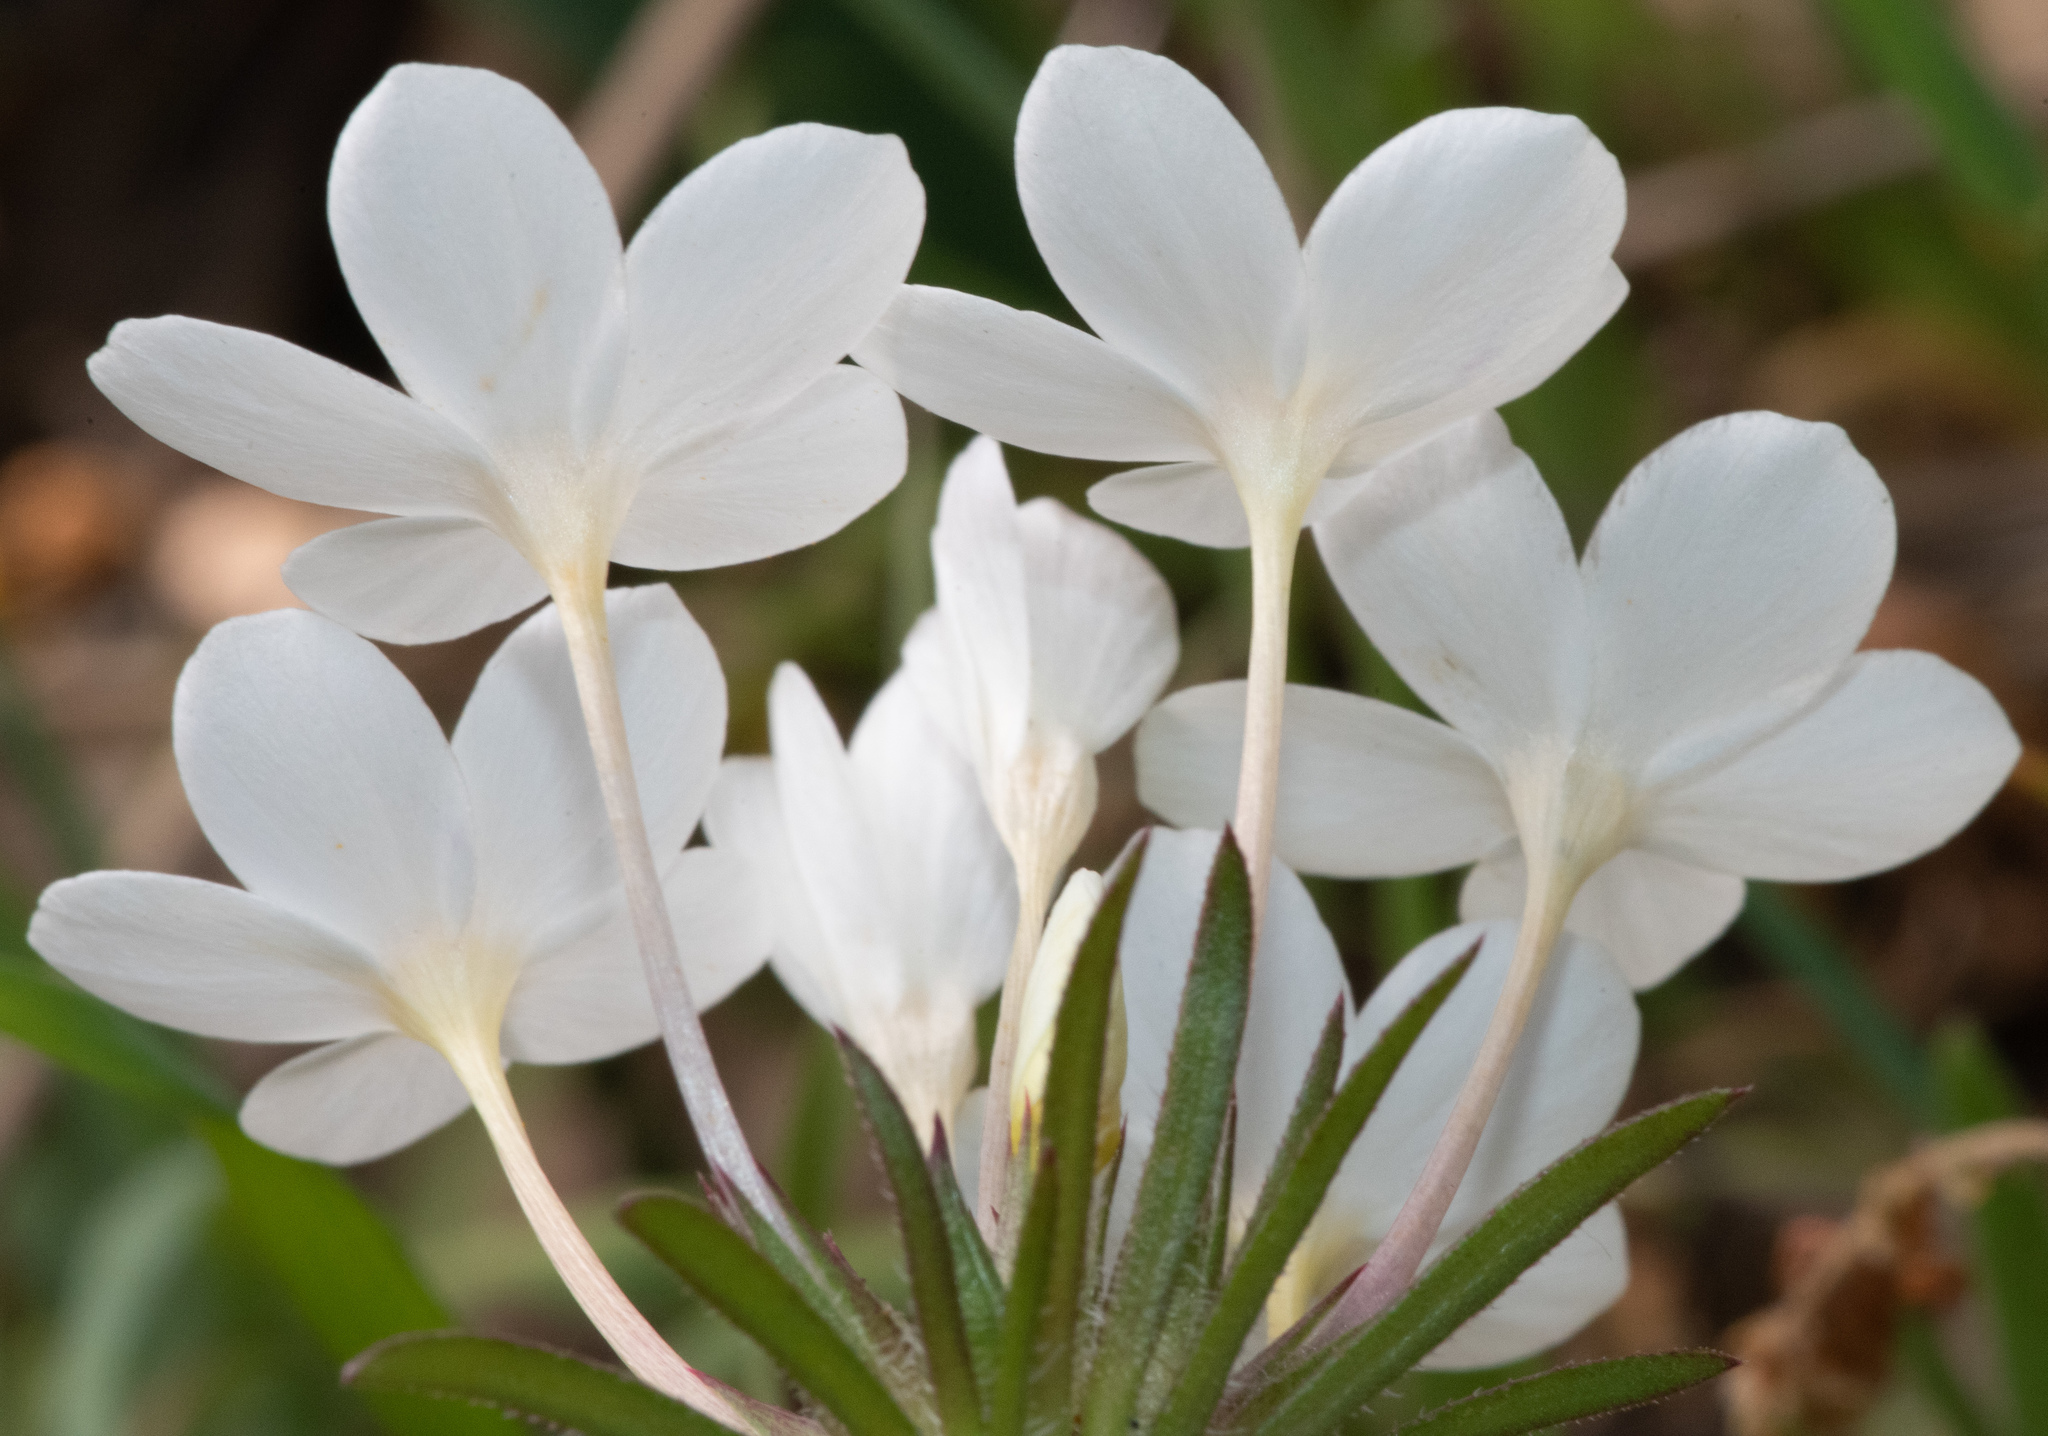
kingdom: Plantae
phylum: Tracheophyta
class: Magnoliopsida
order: Ericales
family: Polemoniaceae
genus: Leptosiphon
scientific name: Leptosiphon parviflorus
